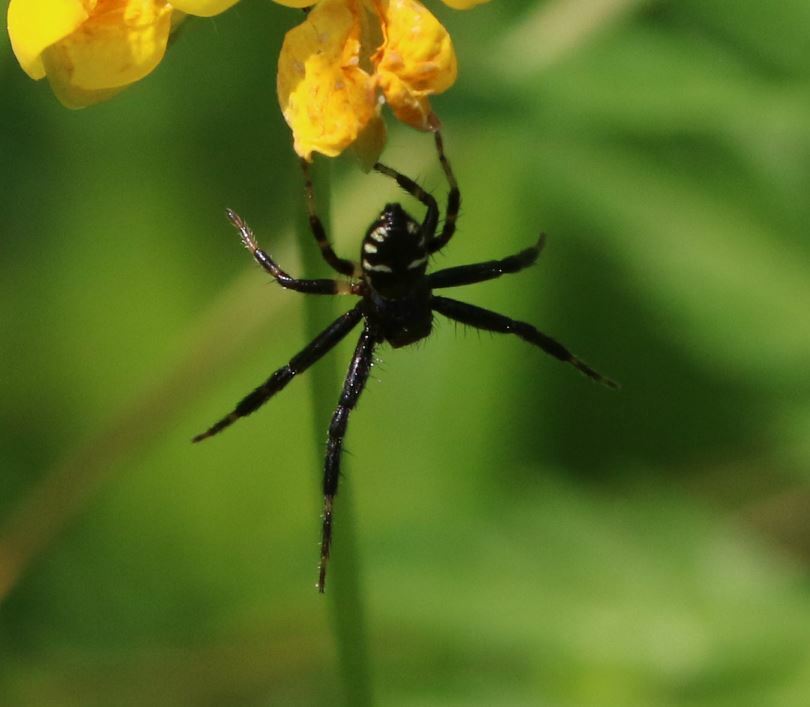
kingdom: Animalia
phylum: Arthropoda
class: Arachnida
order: Araneae
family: Thomisidae
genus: Synema
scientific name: Synema globosum
